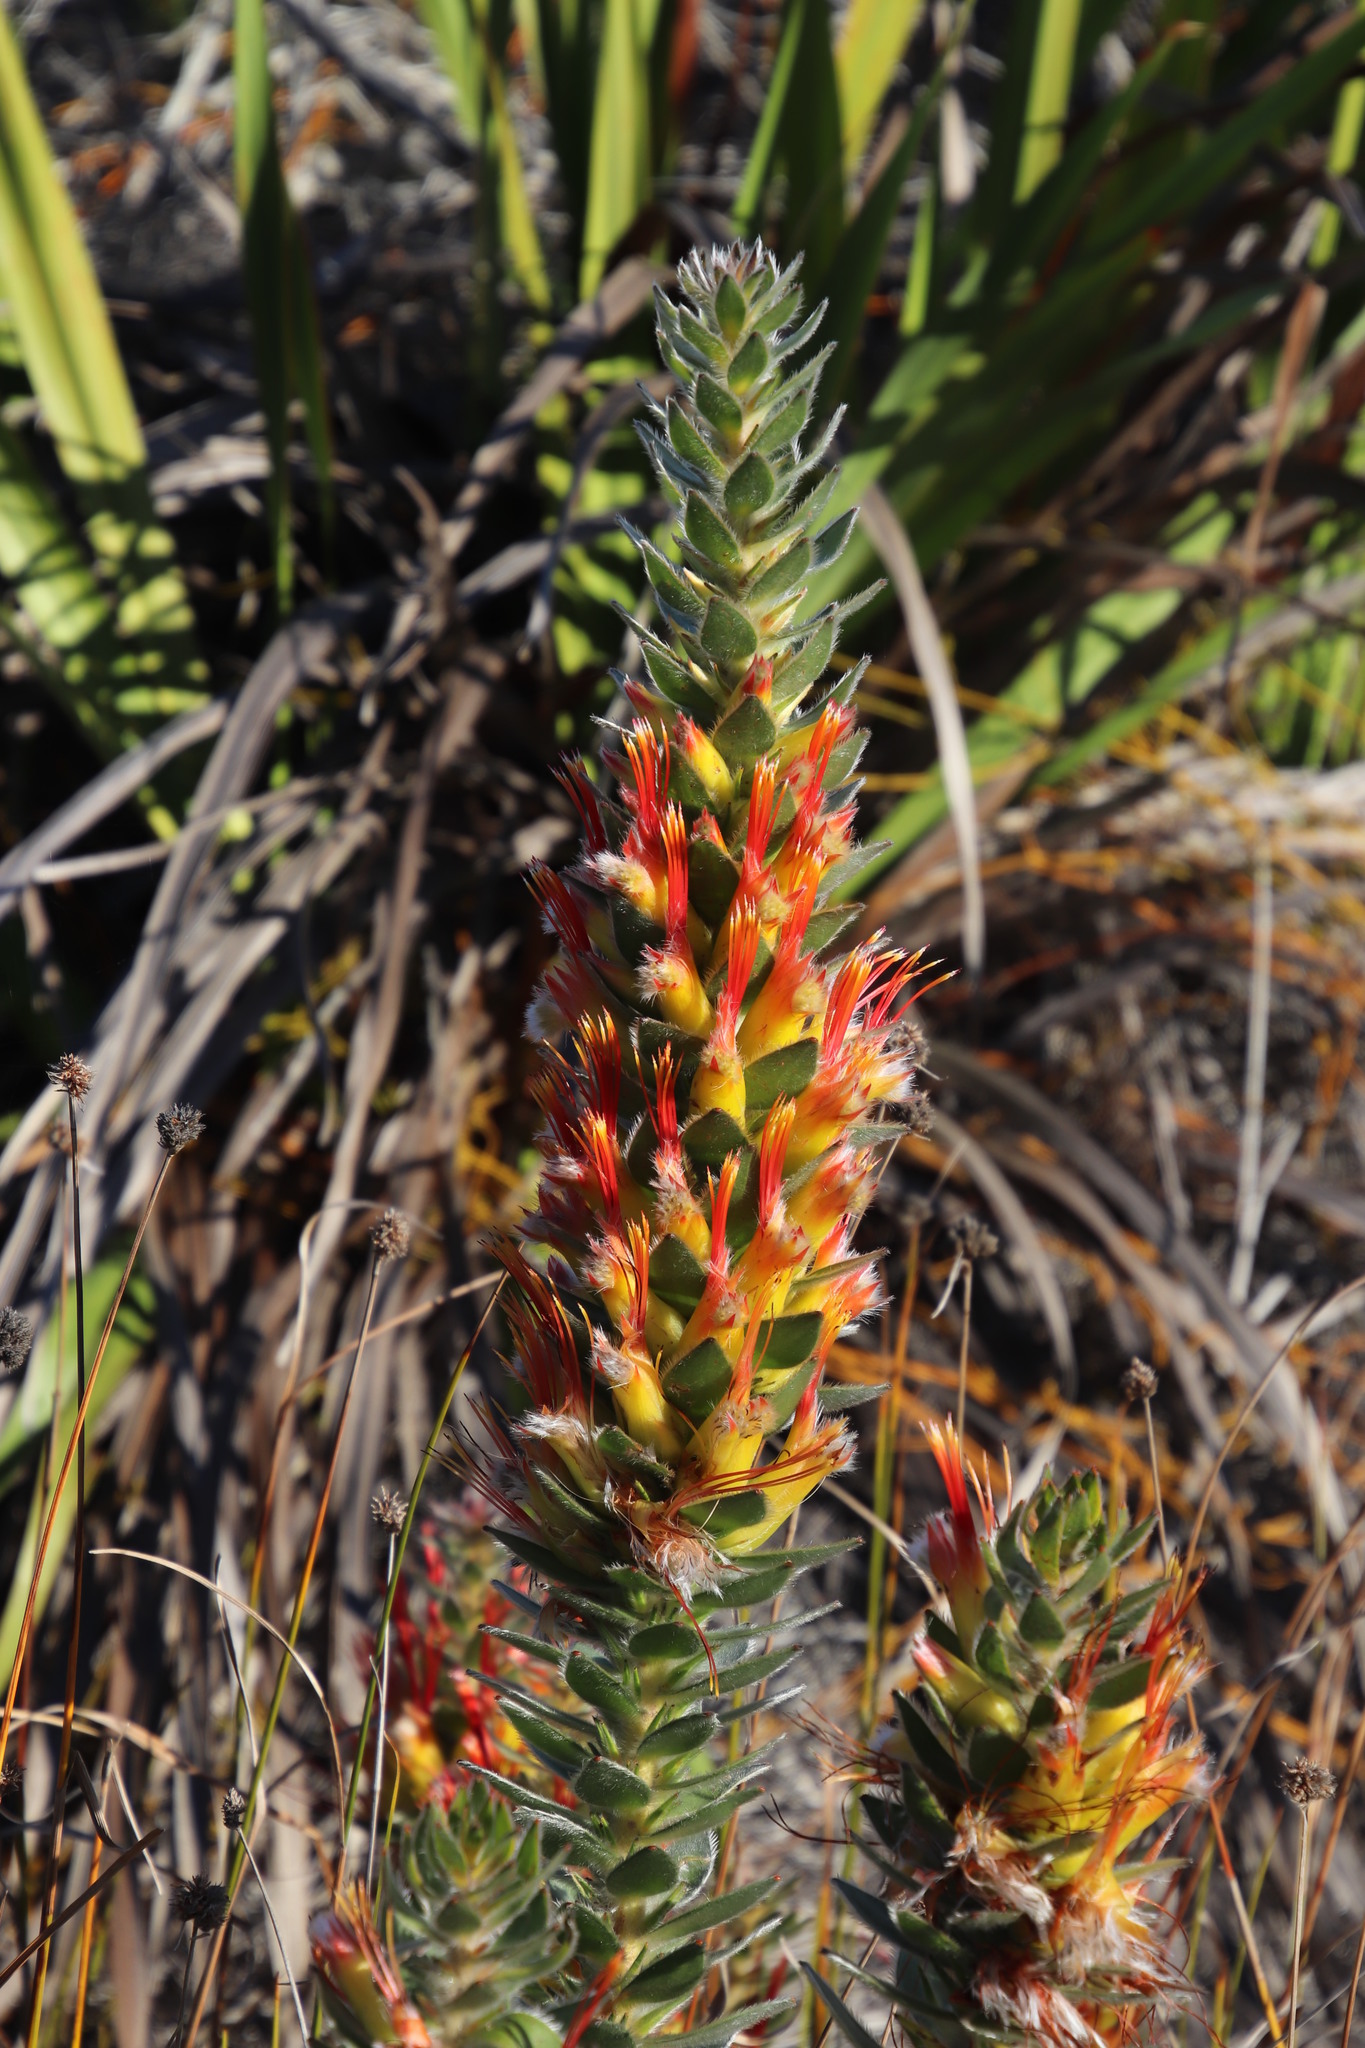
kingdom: Plantae
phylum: Tracheophyta
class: Magnoliopsida
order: Proteales
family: Proteaceae
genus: Mimetes
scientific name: Mimetes hirtus
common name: Marsh pagoda
